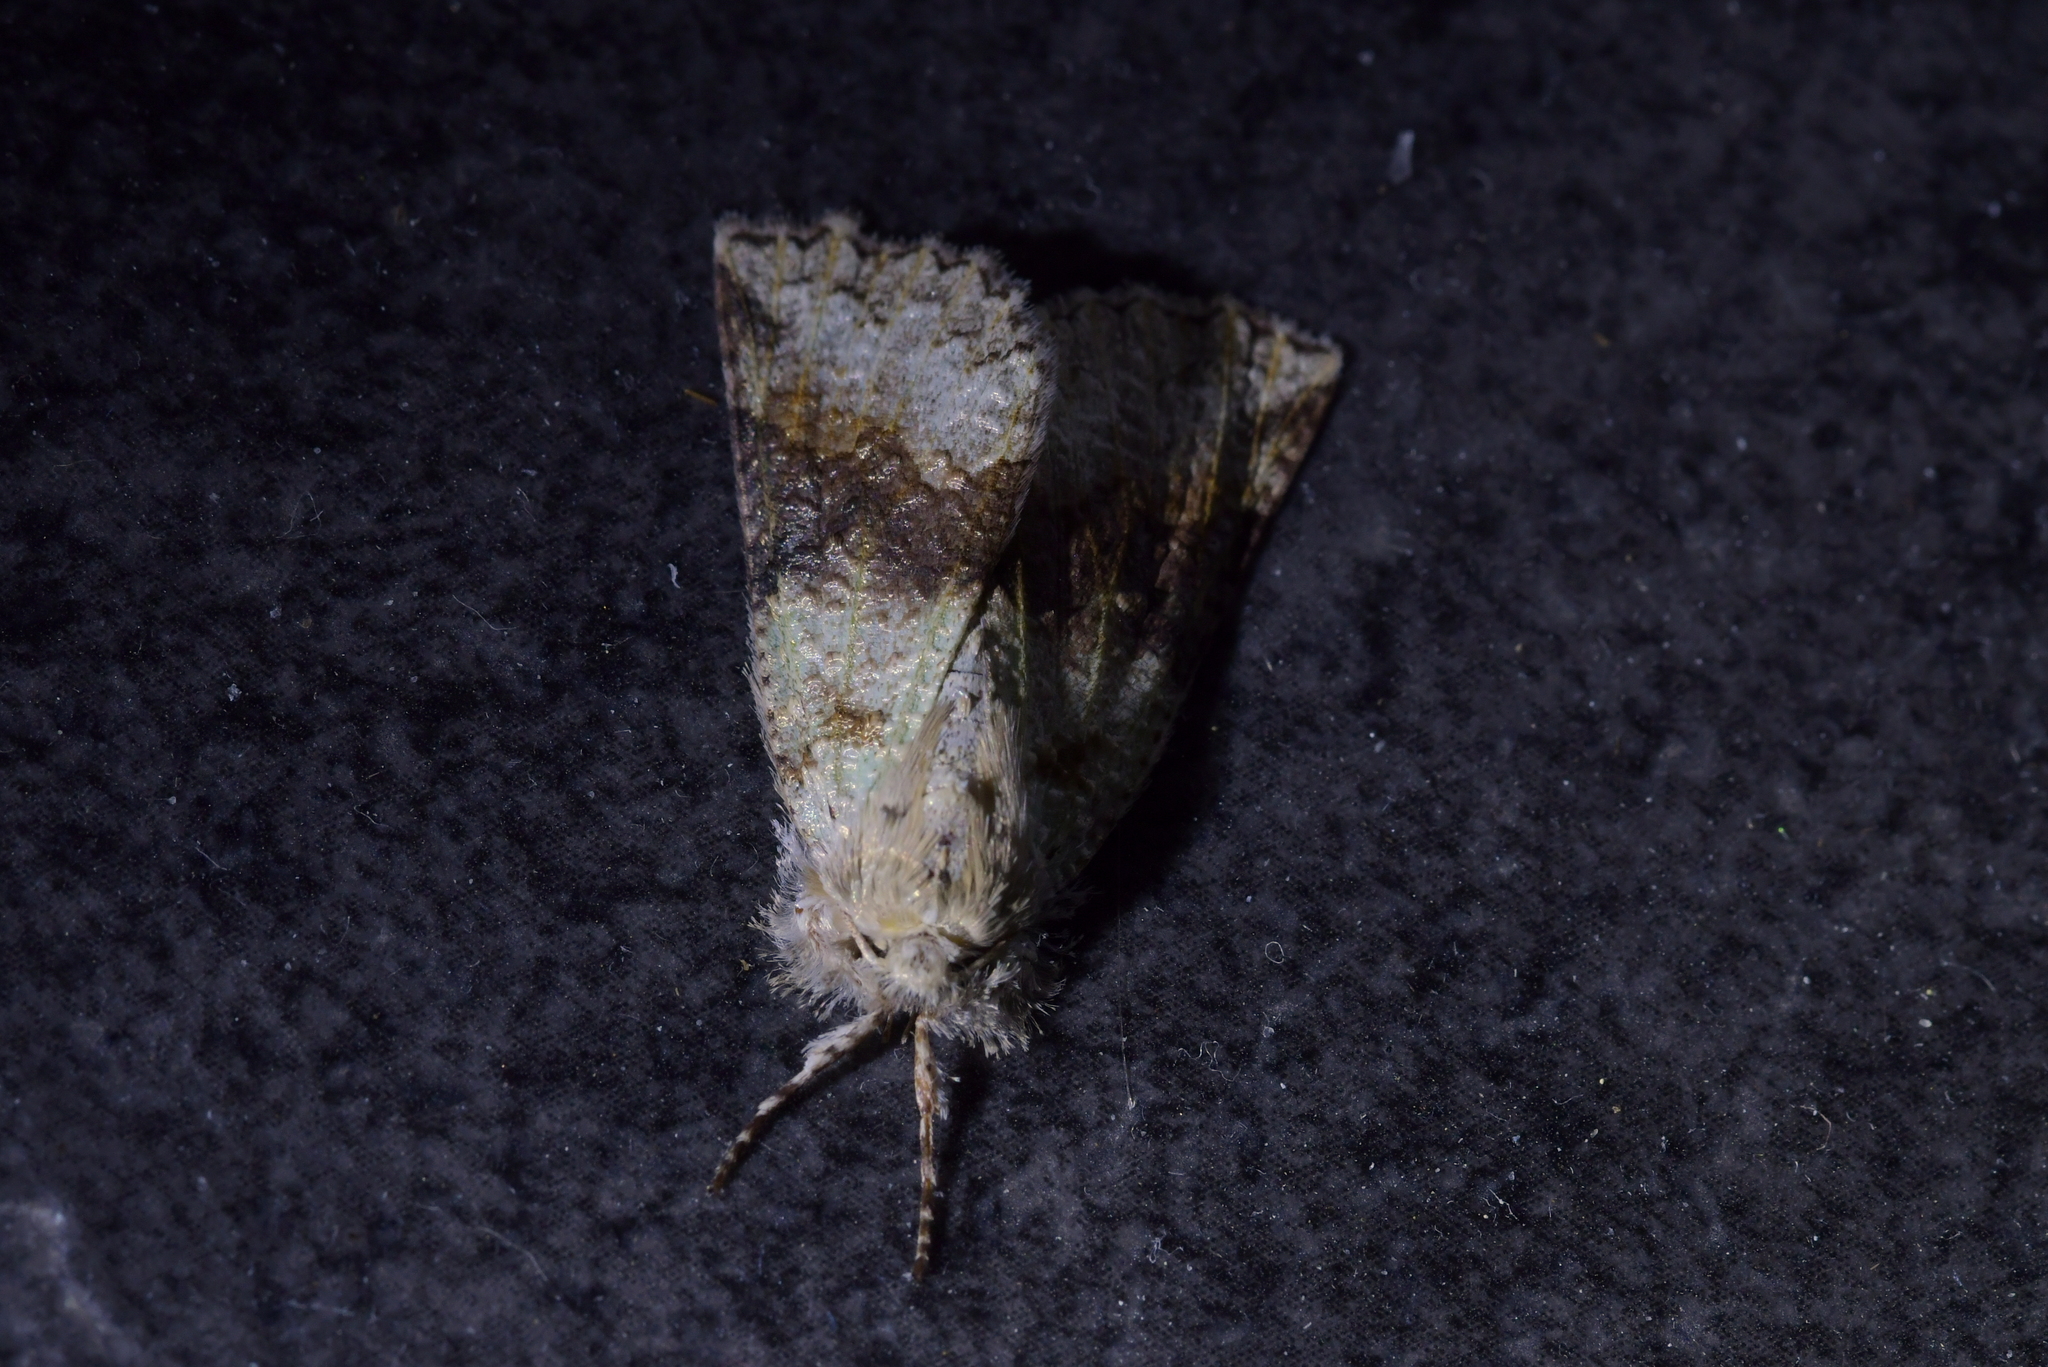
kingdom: Animalia
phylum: Arthropoda
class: Insecta
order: Lepidoptera
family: Geometridae
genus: Declana
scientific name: Declana floccosa
